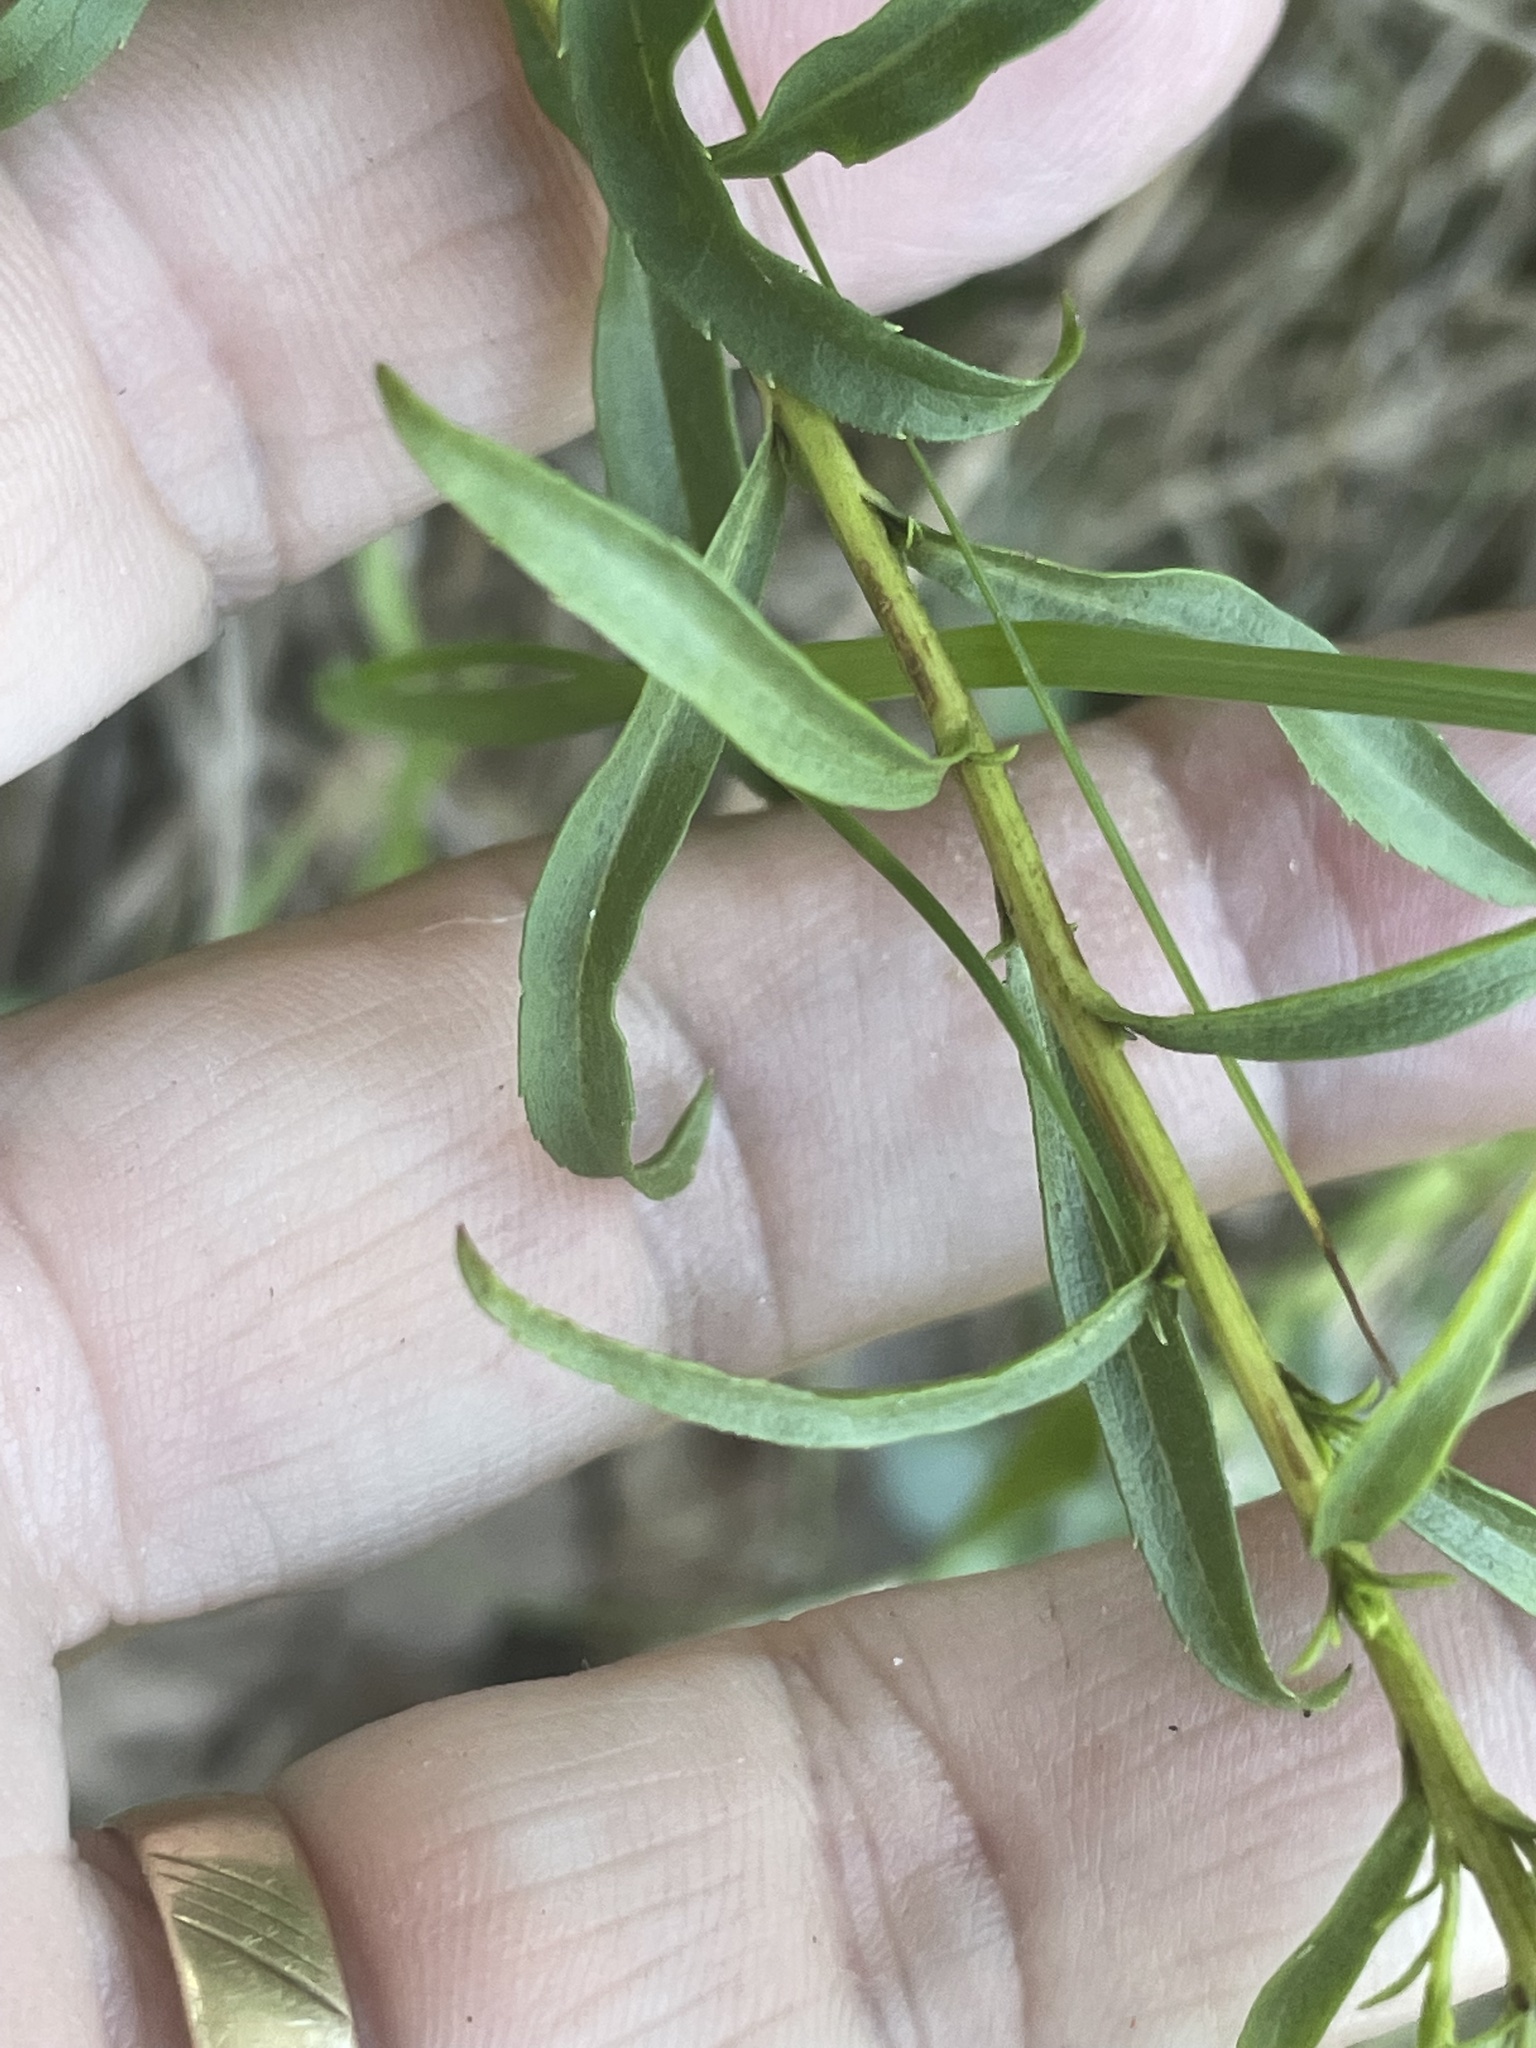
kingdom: Plantae
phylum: Tracheophyta
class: Magnoliopsida
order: Asterales
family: Asteraceae
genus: Solidago
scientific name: Solidago pinetorum
